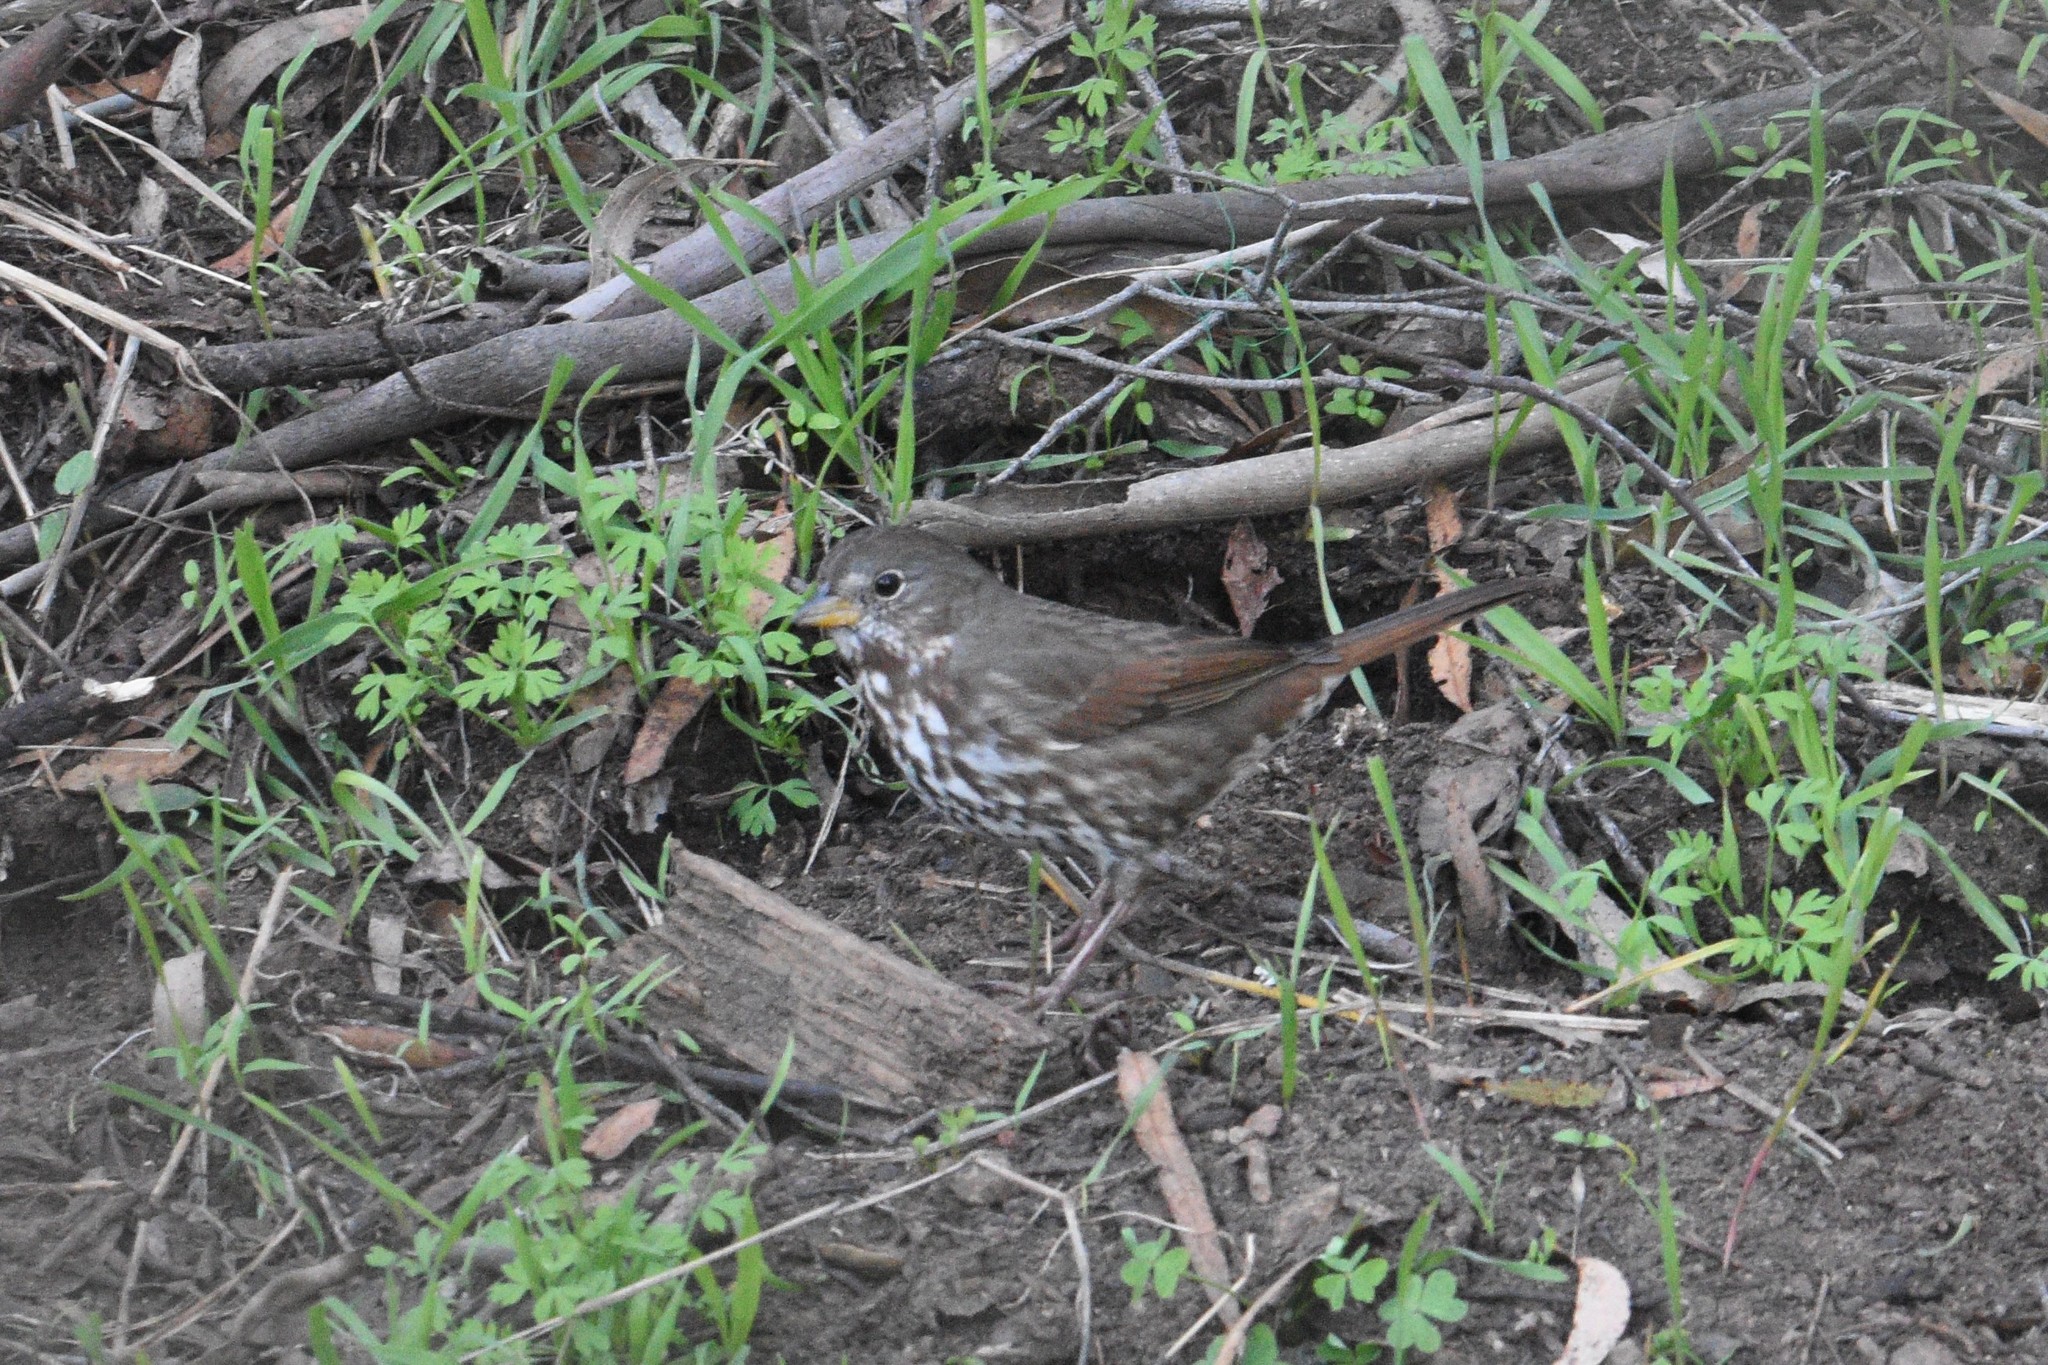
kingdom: Animalia
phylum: Chordata
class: Aves
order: Passeriformes
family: Passerellidae
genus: Passerella
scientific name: Passerella iliaca
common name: Fox sparrow
